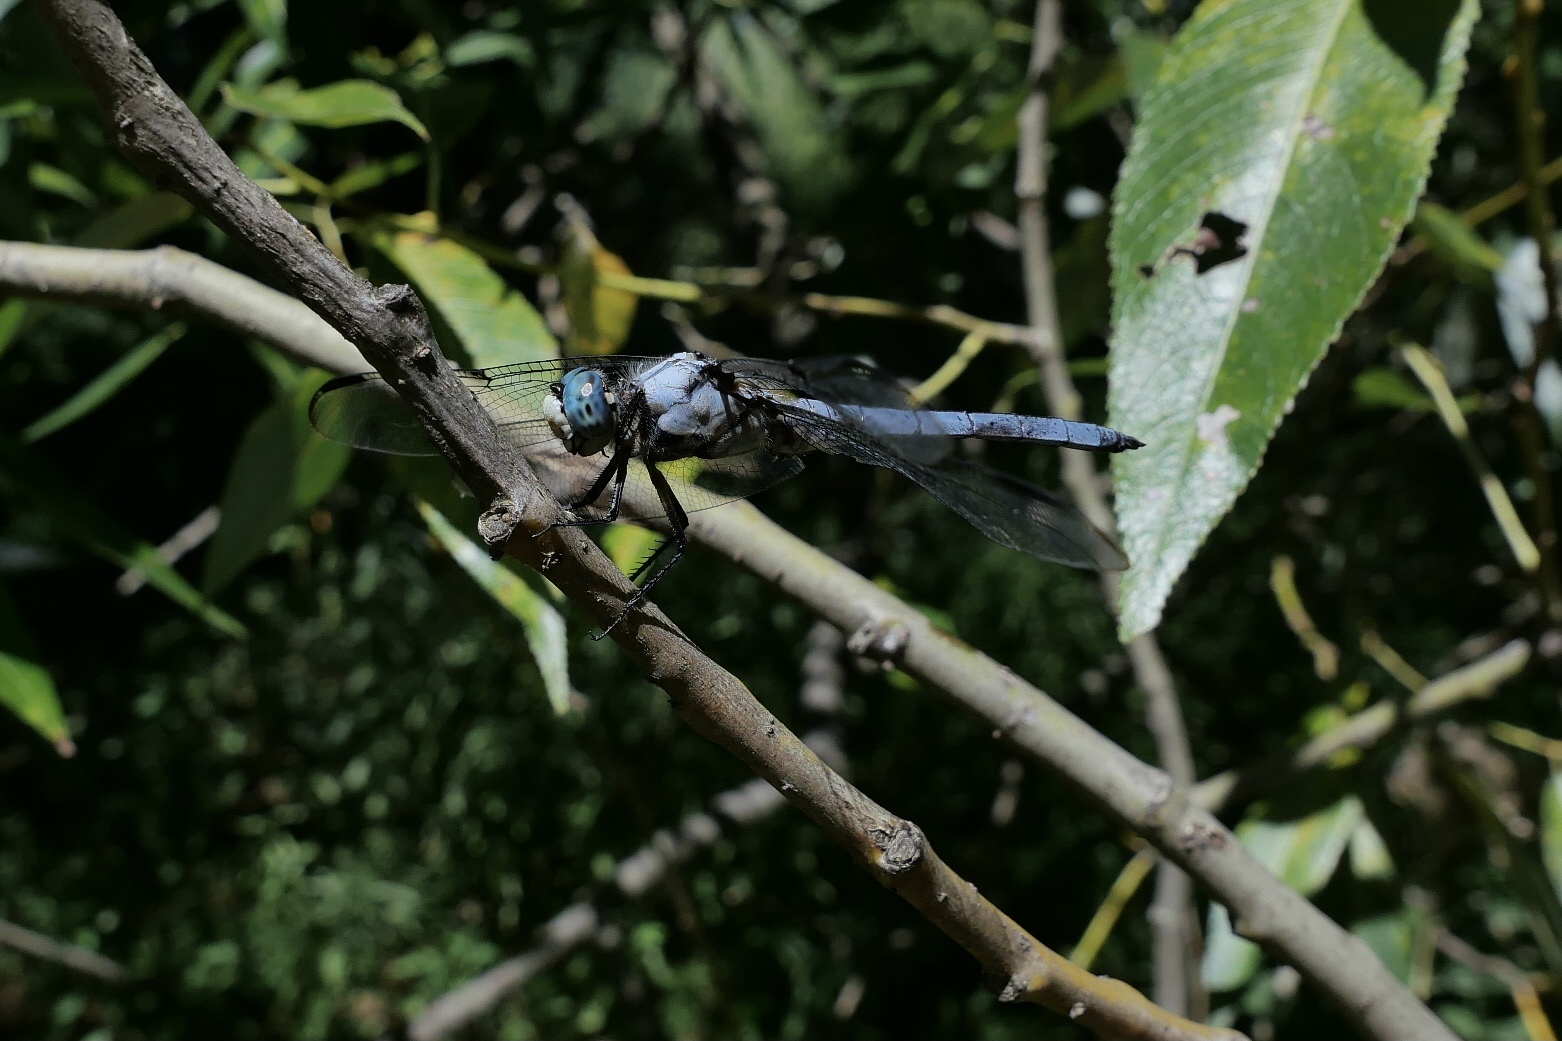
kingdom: Animalia
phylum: Arthropoda
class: Insecta
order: Odonata
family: Libellulidae
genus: Libellula
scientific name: Libellula vibrans
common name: Great blue skimmer
